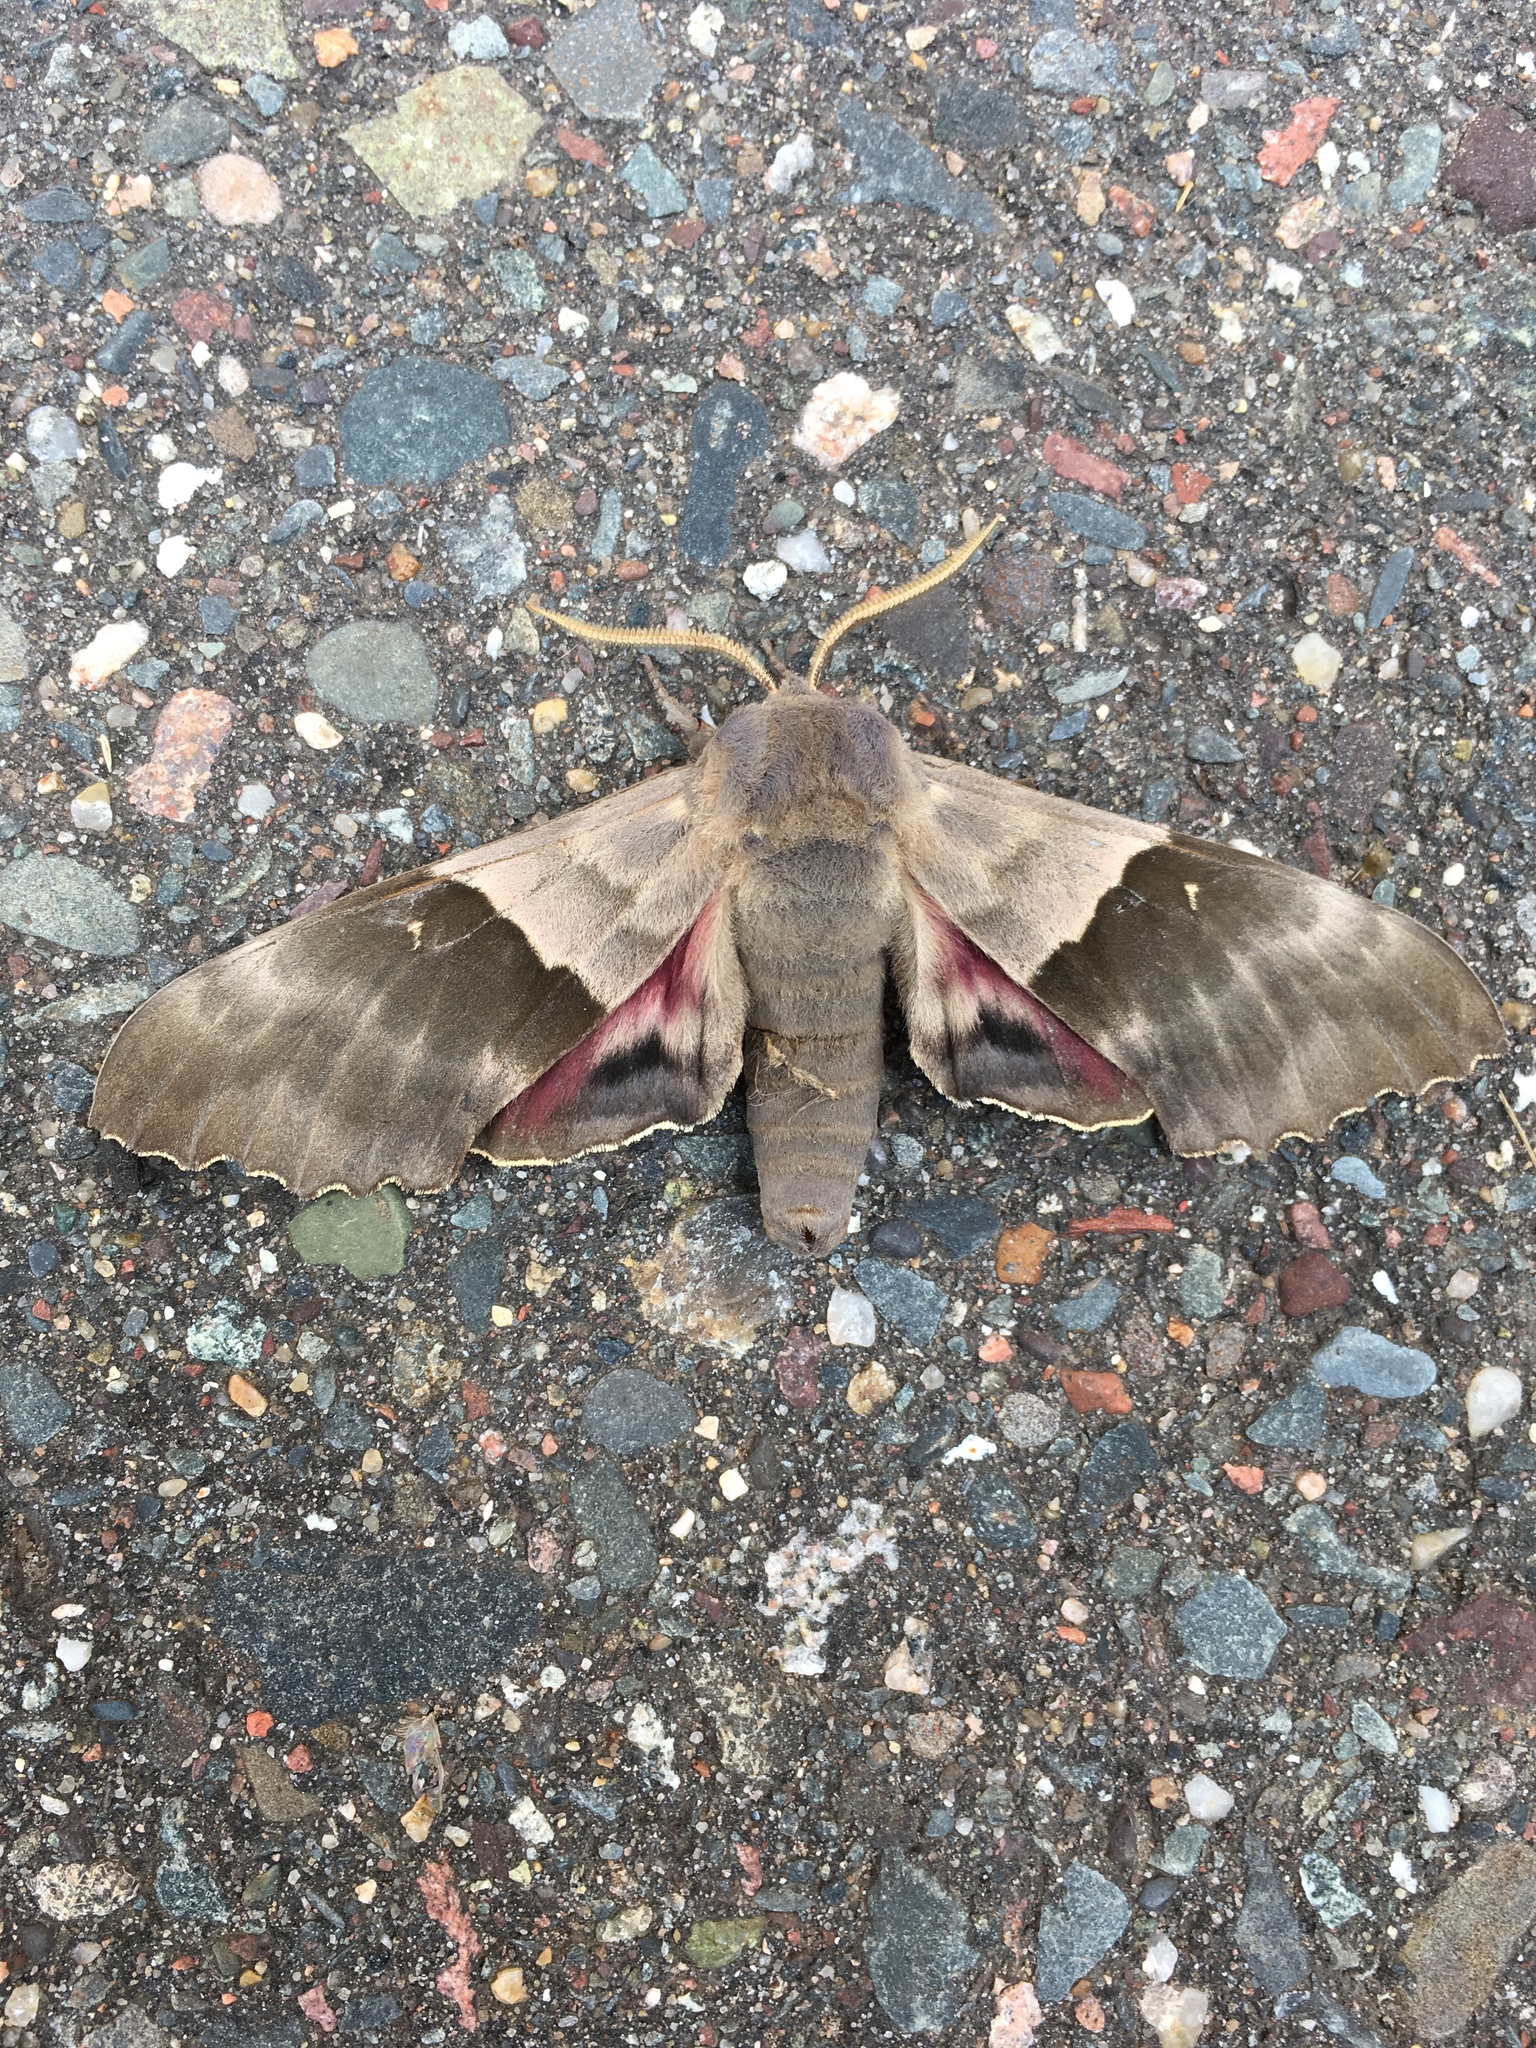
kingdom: Animalia
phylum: Arthropoda
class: Insecta
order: Lepidoptera
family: Sphingidae
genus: Pachysphinx
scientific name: Pachysphinx modesta
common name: Big poplar sphinx
